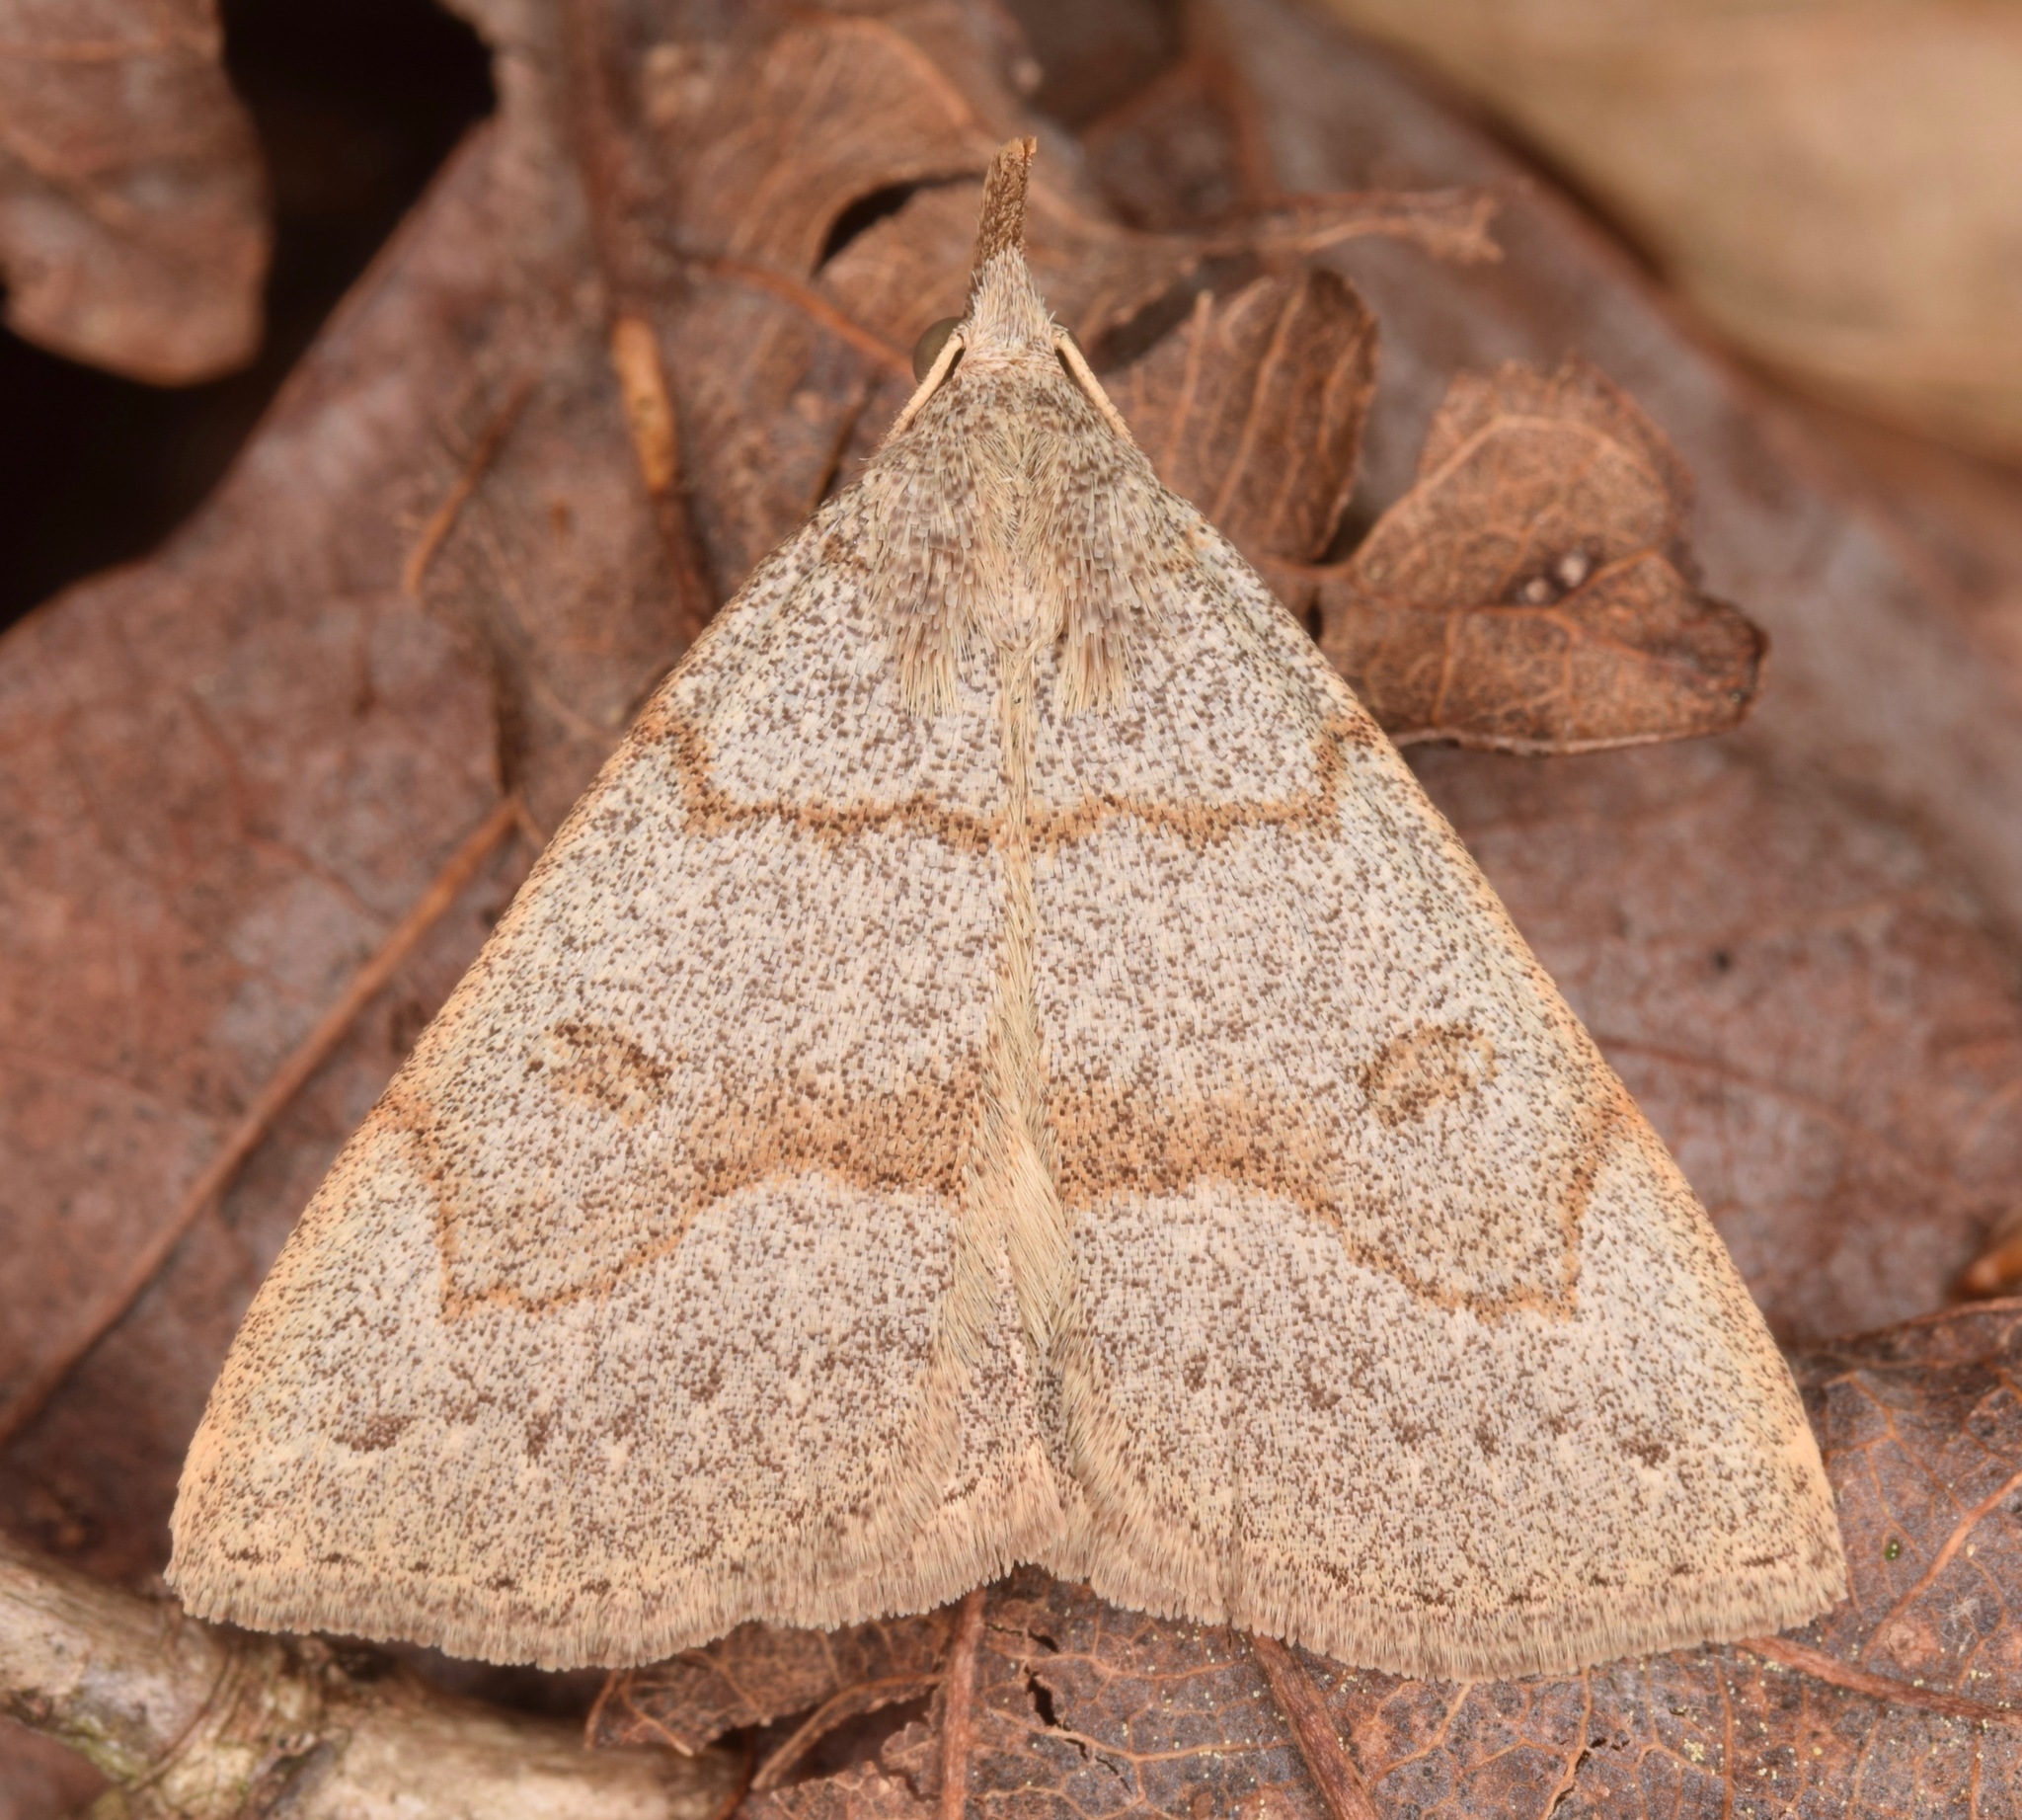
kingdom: Animalia
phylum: Arthropoda
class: Insecta
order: Lepidoptera
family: Erebidae
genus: Macrochilo
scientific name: Macrochilo morbidalis
